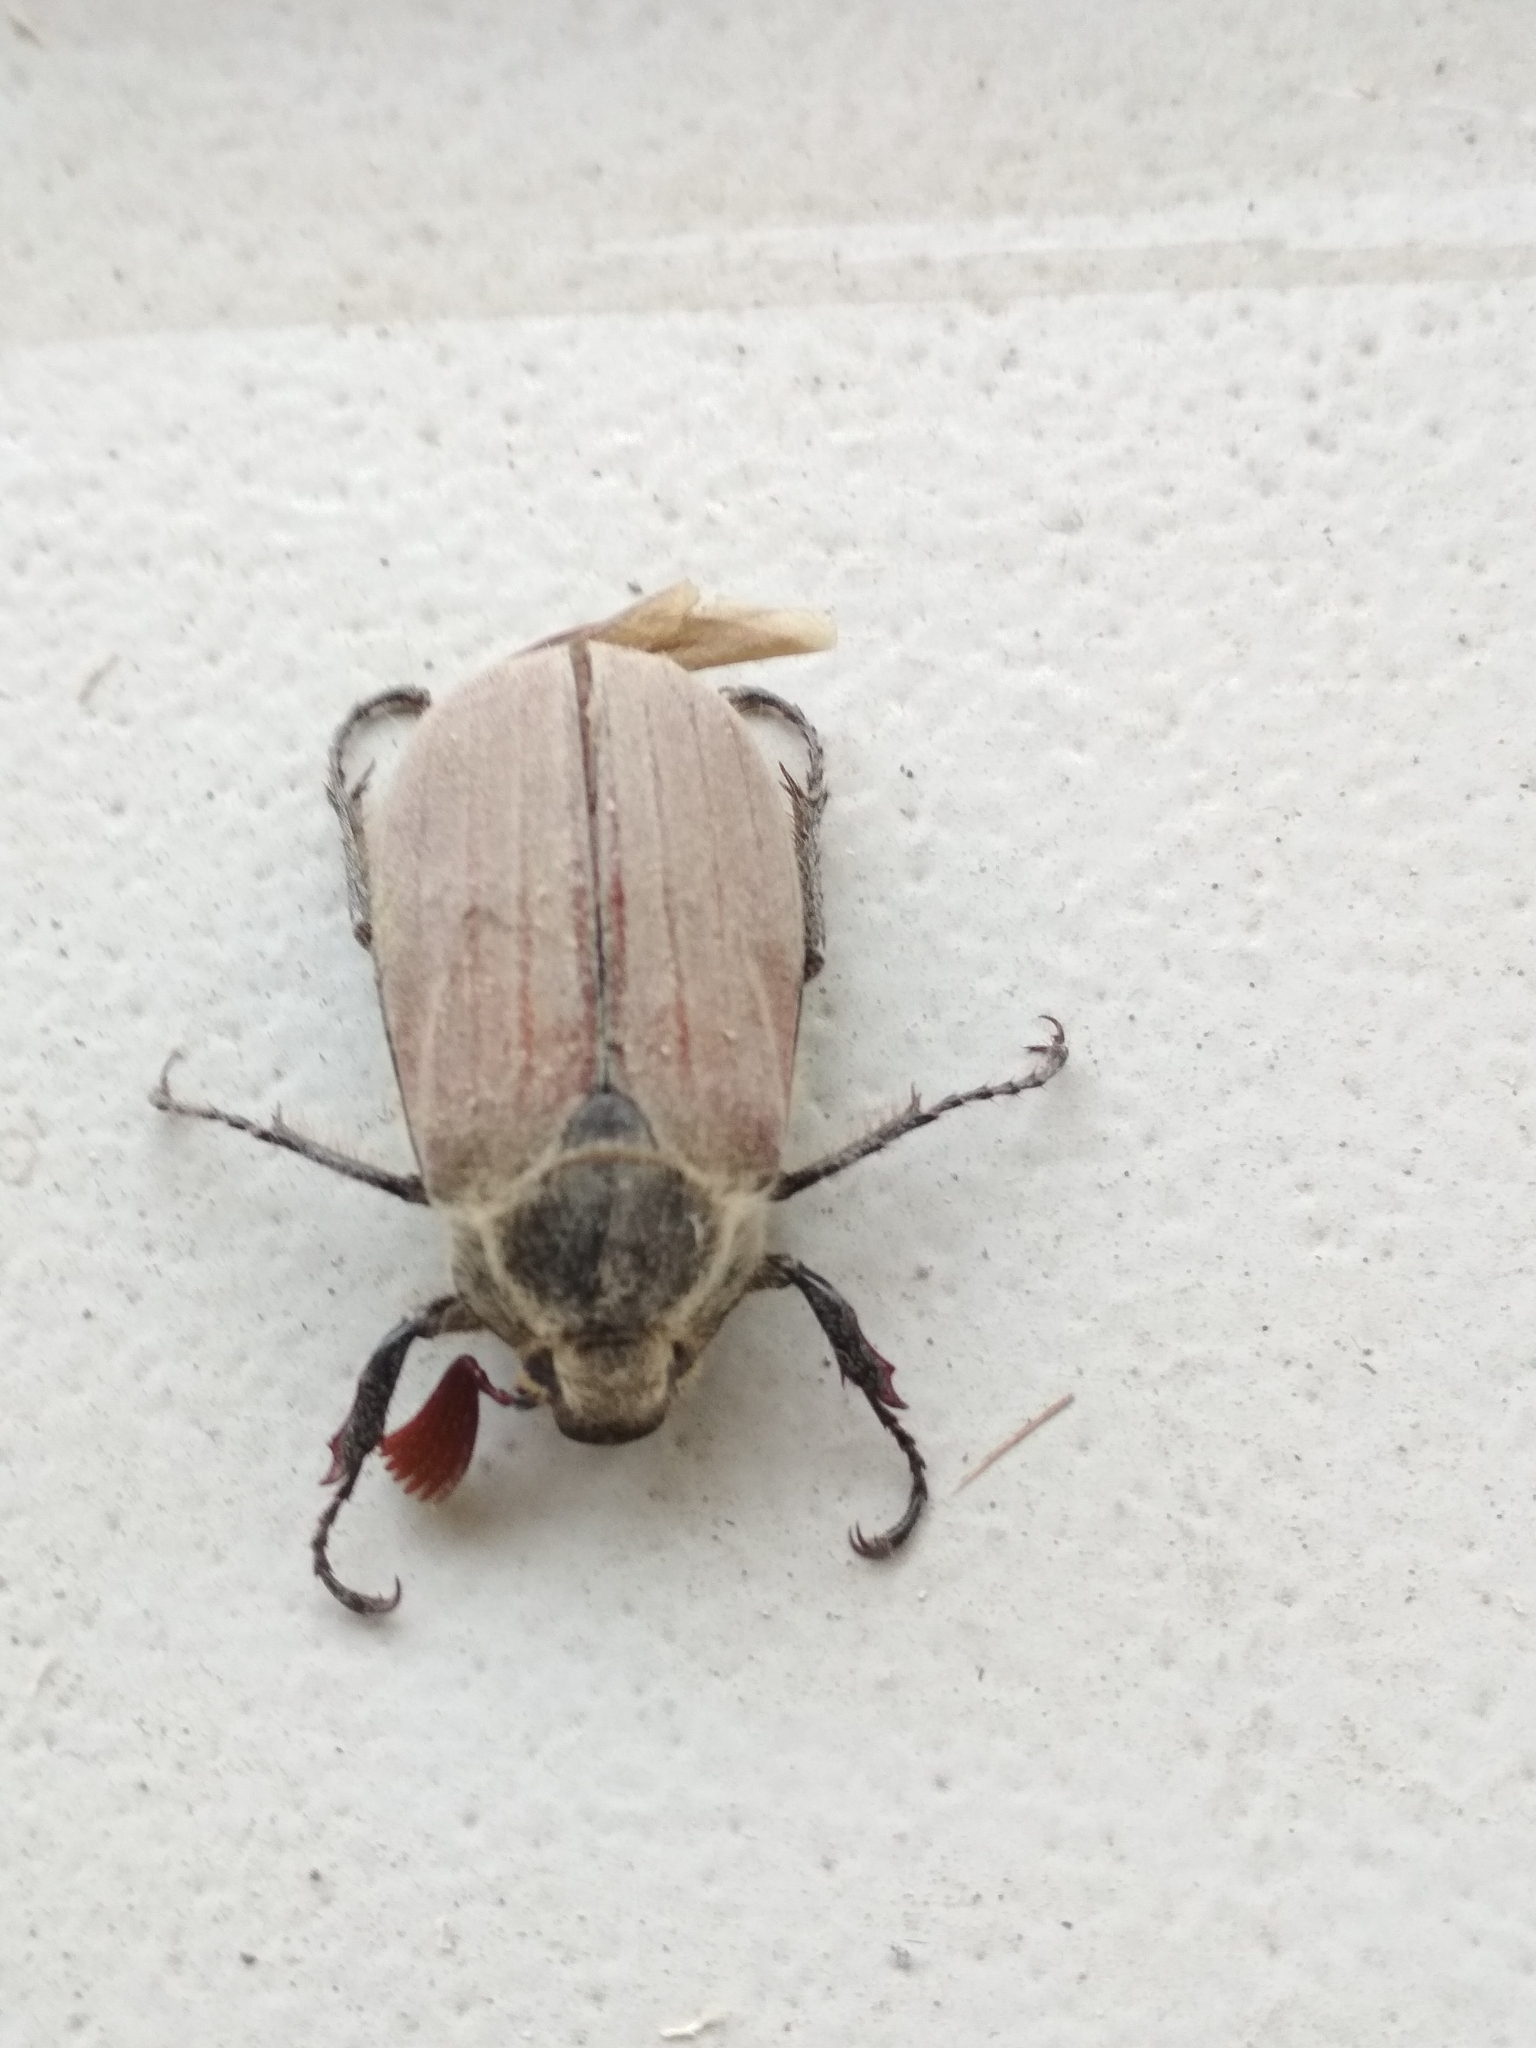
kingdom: Animalia
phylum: Arthropoda
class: Insecta
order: Coleoptera
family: Scarabaeidae
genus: Melolontha
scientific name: Melolontha hippocastani
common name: Chestnut cockchafer
